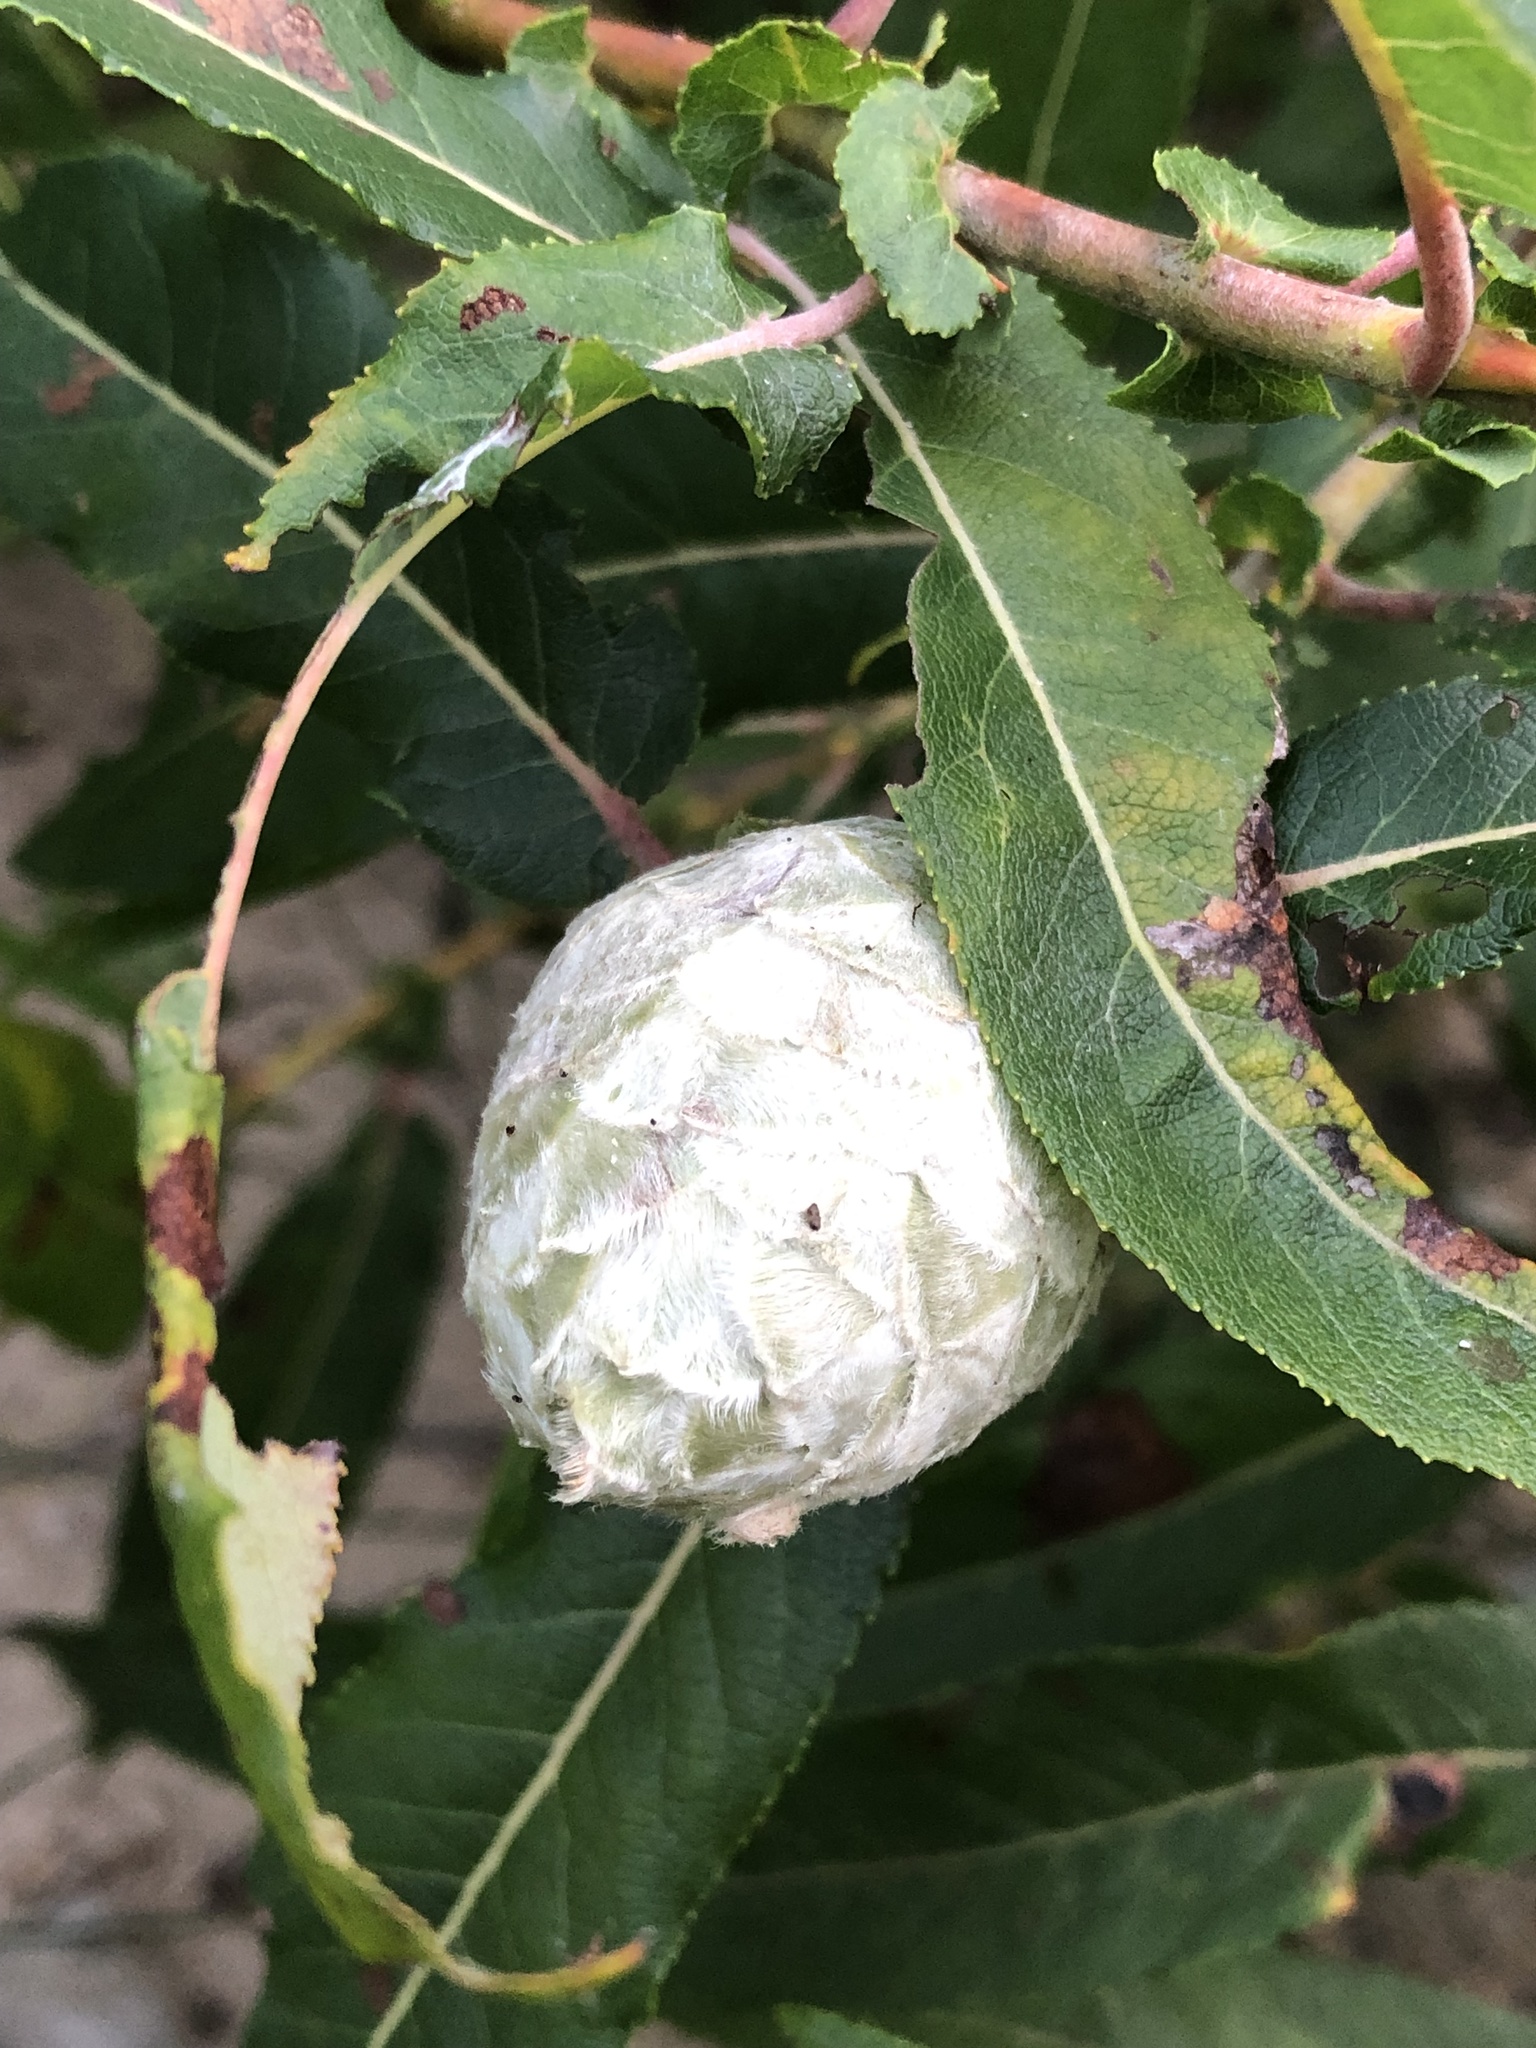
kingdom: Animalia
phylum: Arthropoda
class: Insecta
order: Diptera
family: Cecidomyiidae
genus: Rabdophaga
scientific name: Rabdophaga strobiloides
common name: Willow pinecone gall midge
